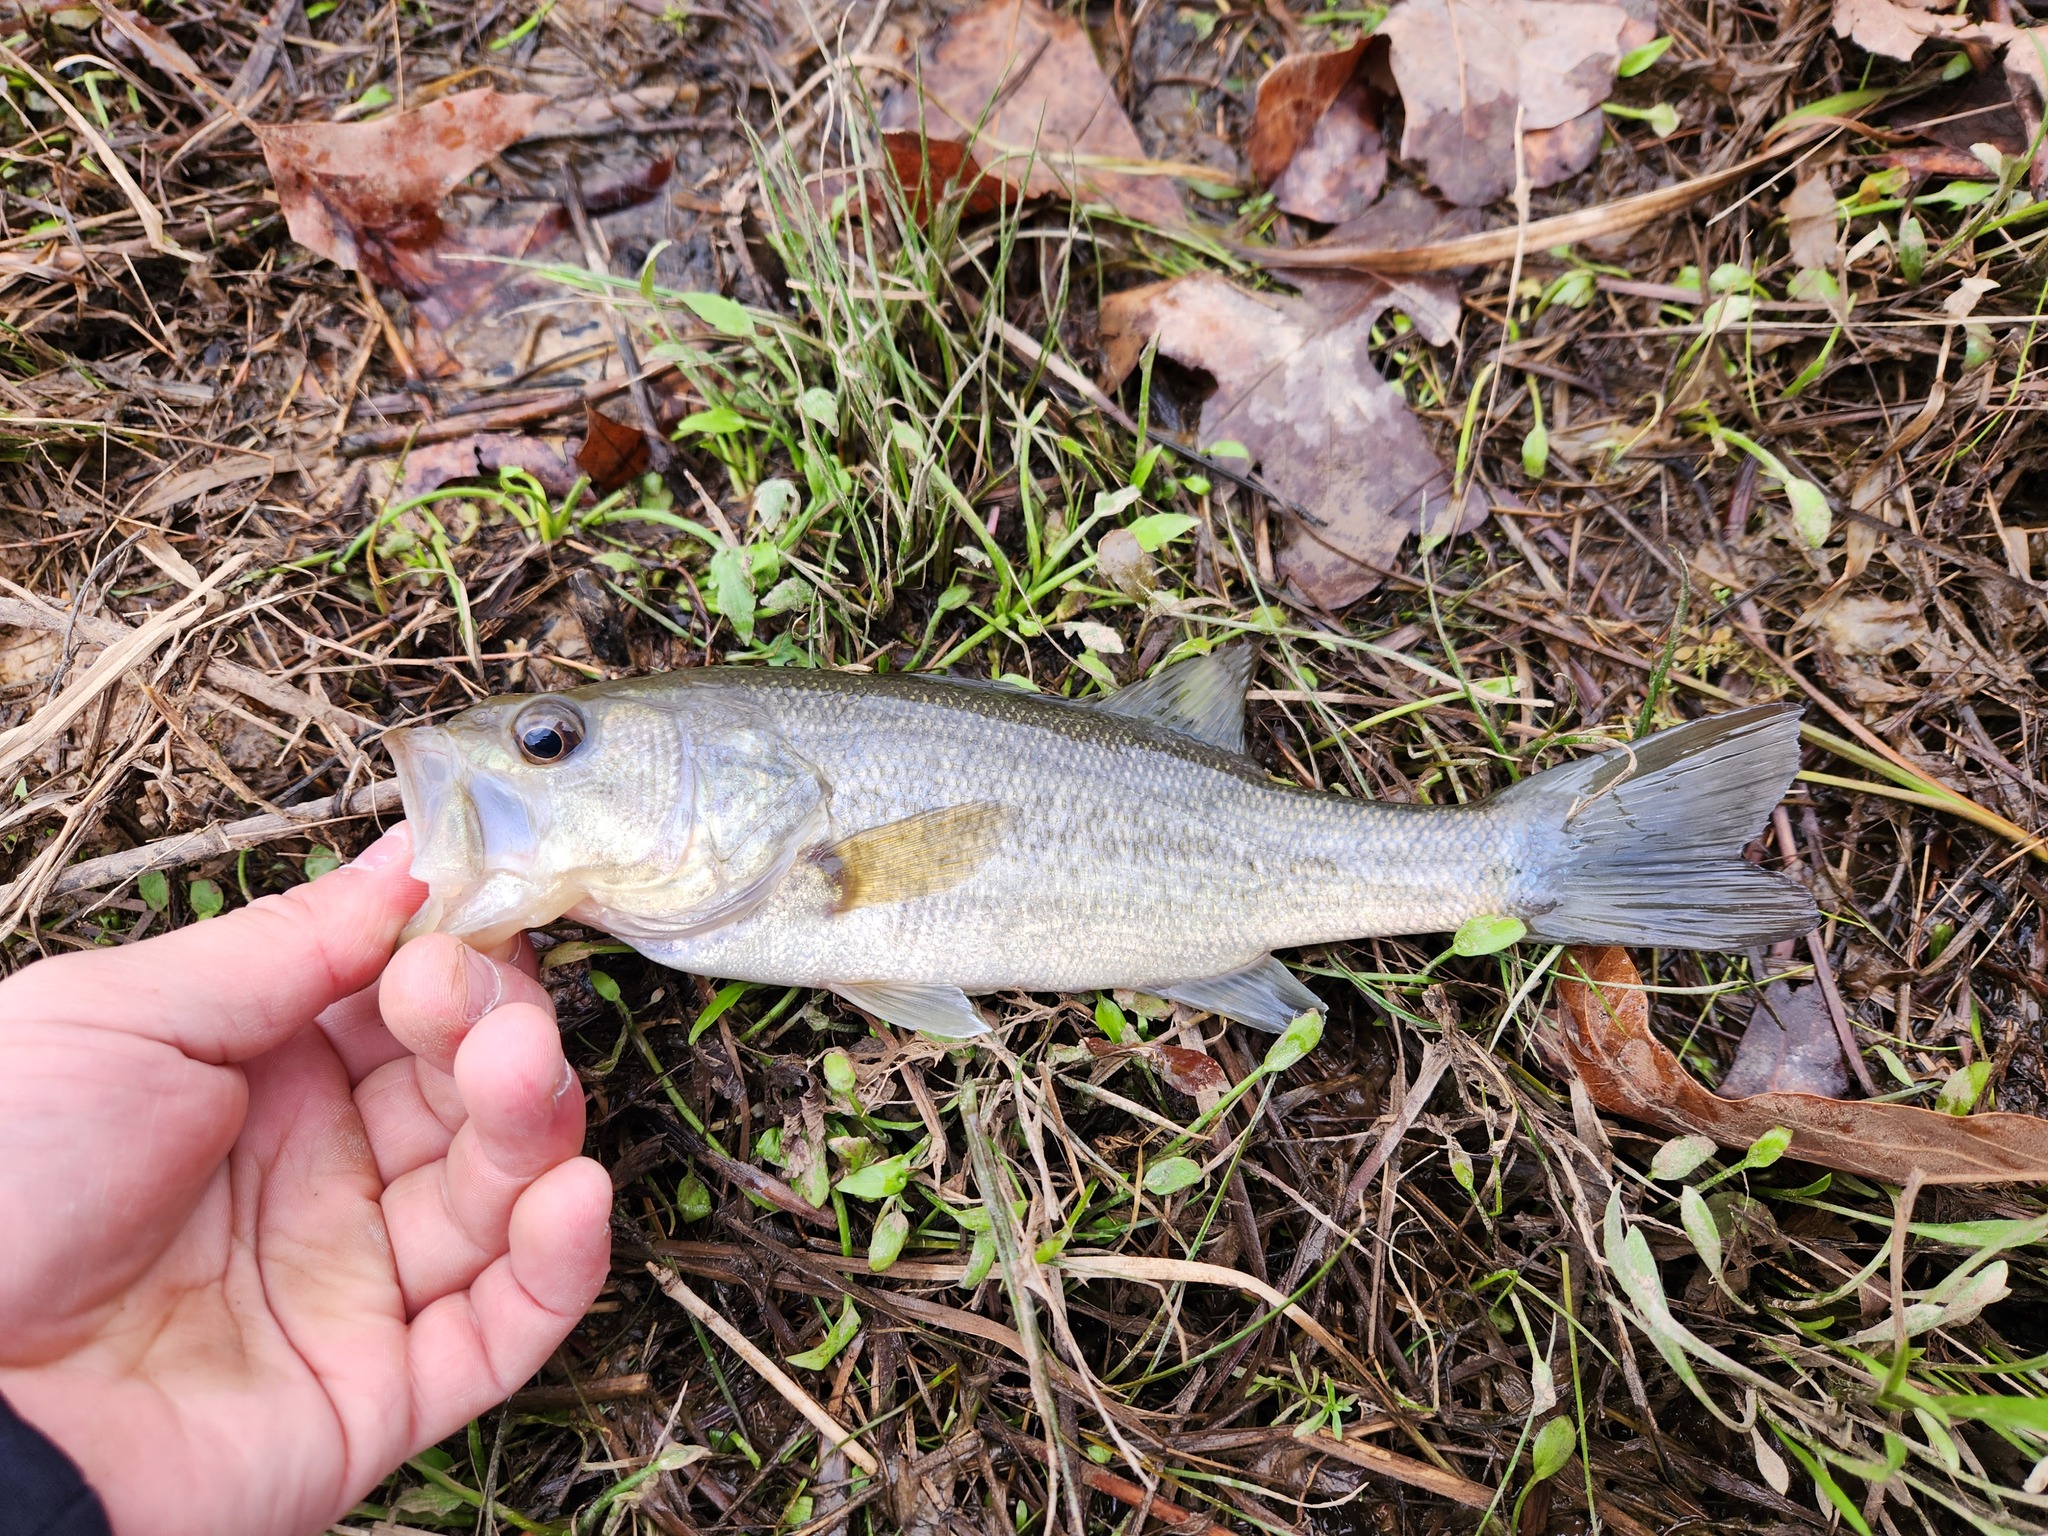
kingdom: Animalia
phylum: Chordata
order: Perciformes
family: Centrarchidae
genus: Micropterus
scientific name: Micropterus
